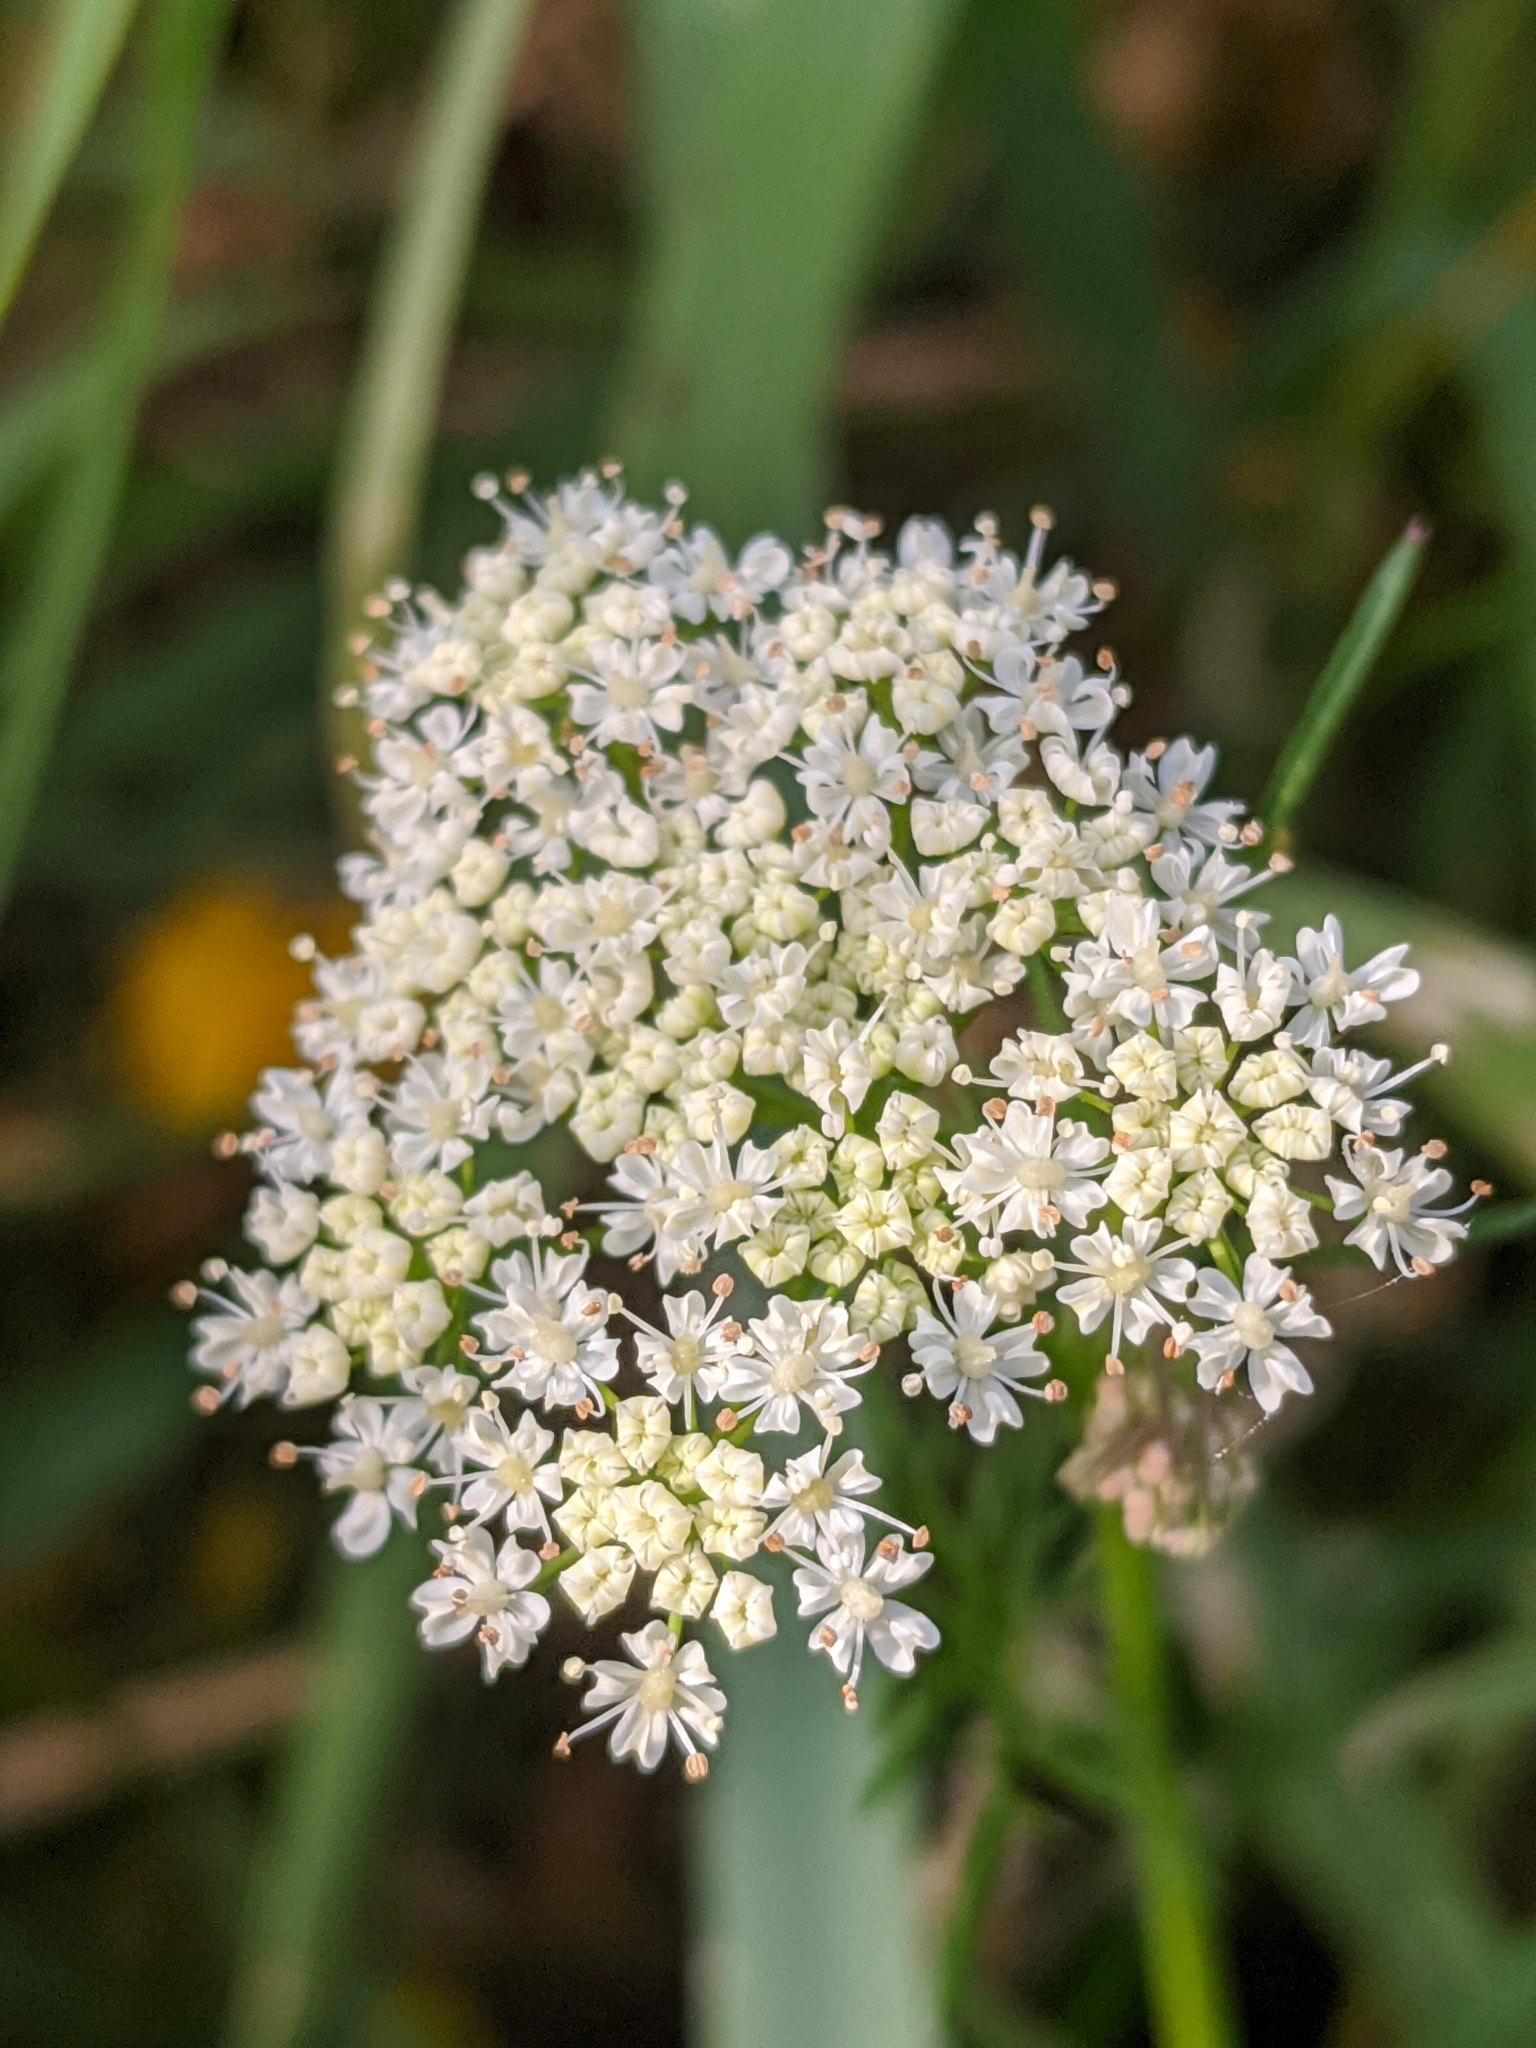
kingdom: Plantae
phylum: Tracheophyta
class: Magnoliopsida
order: Apiales
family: Apiaceae
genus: Conopodium
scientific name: Conopodium majus
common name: Pignut
